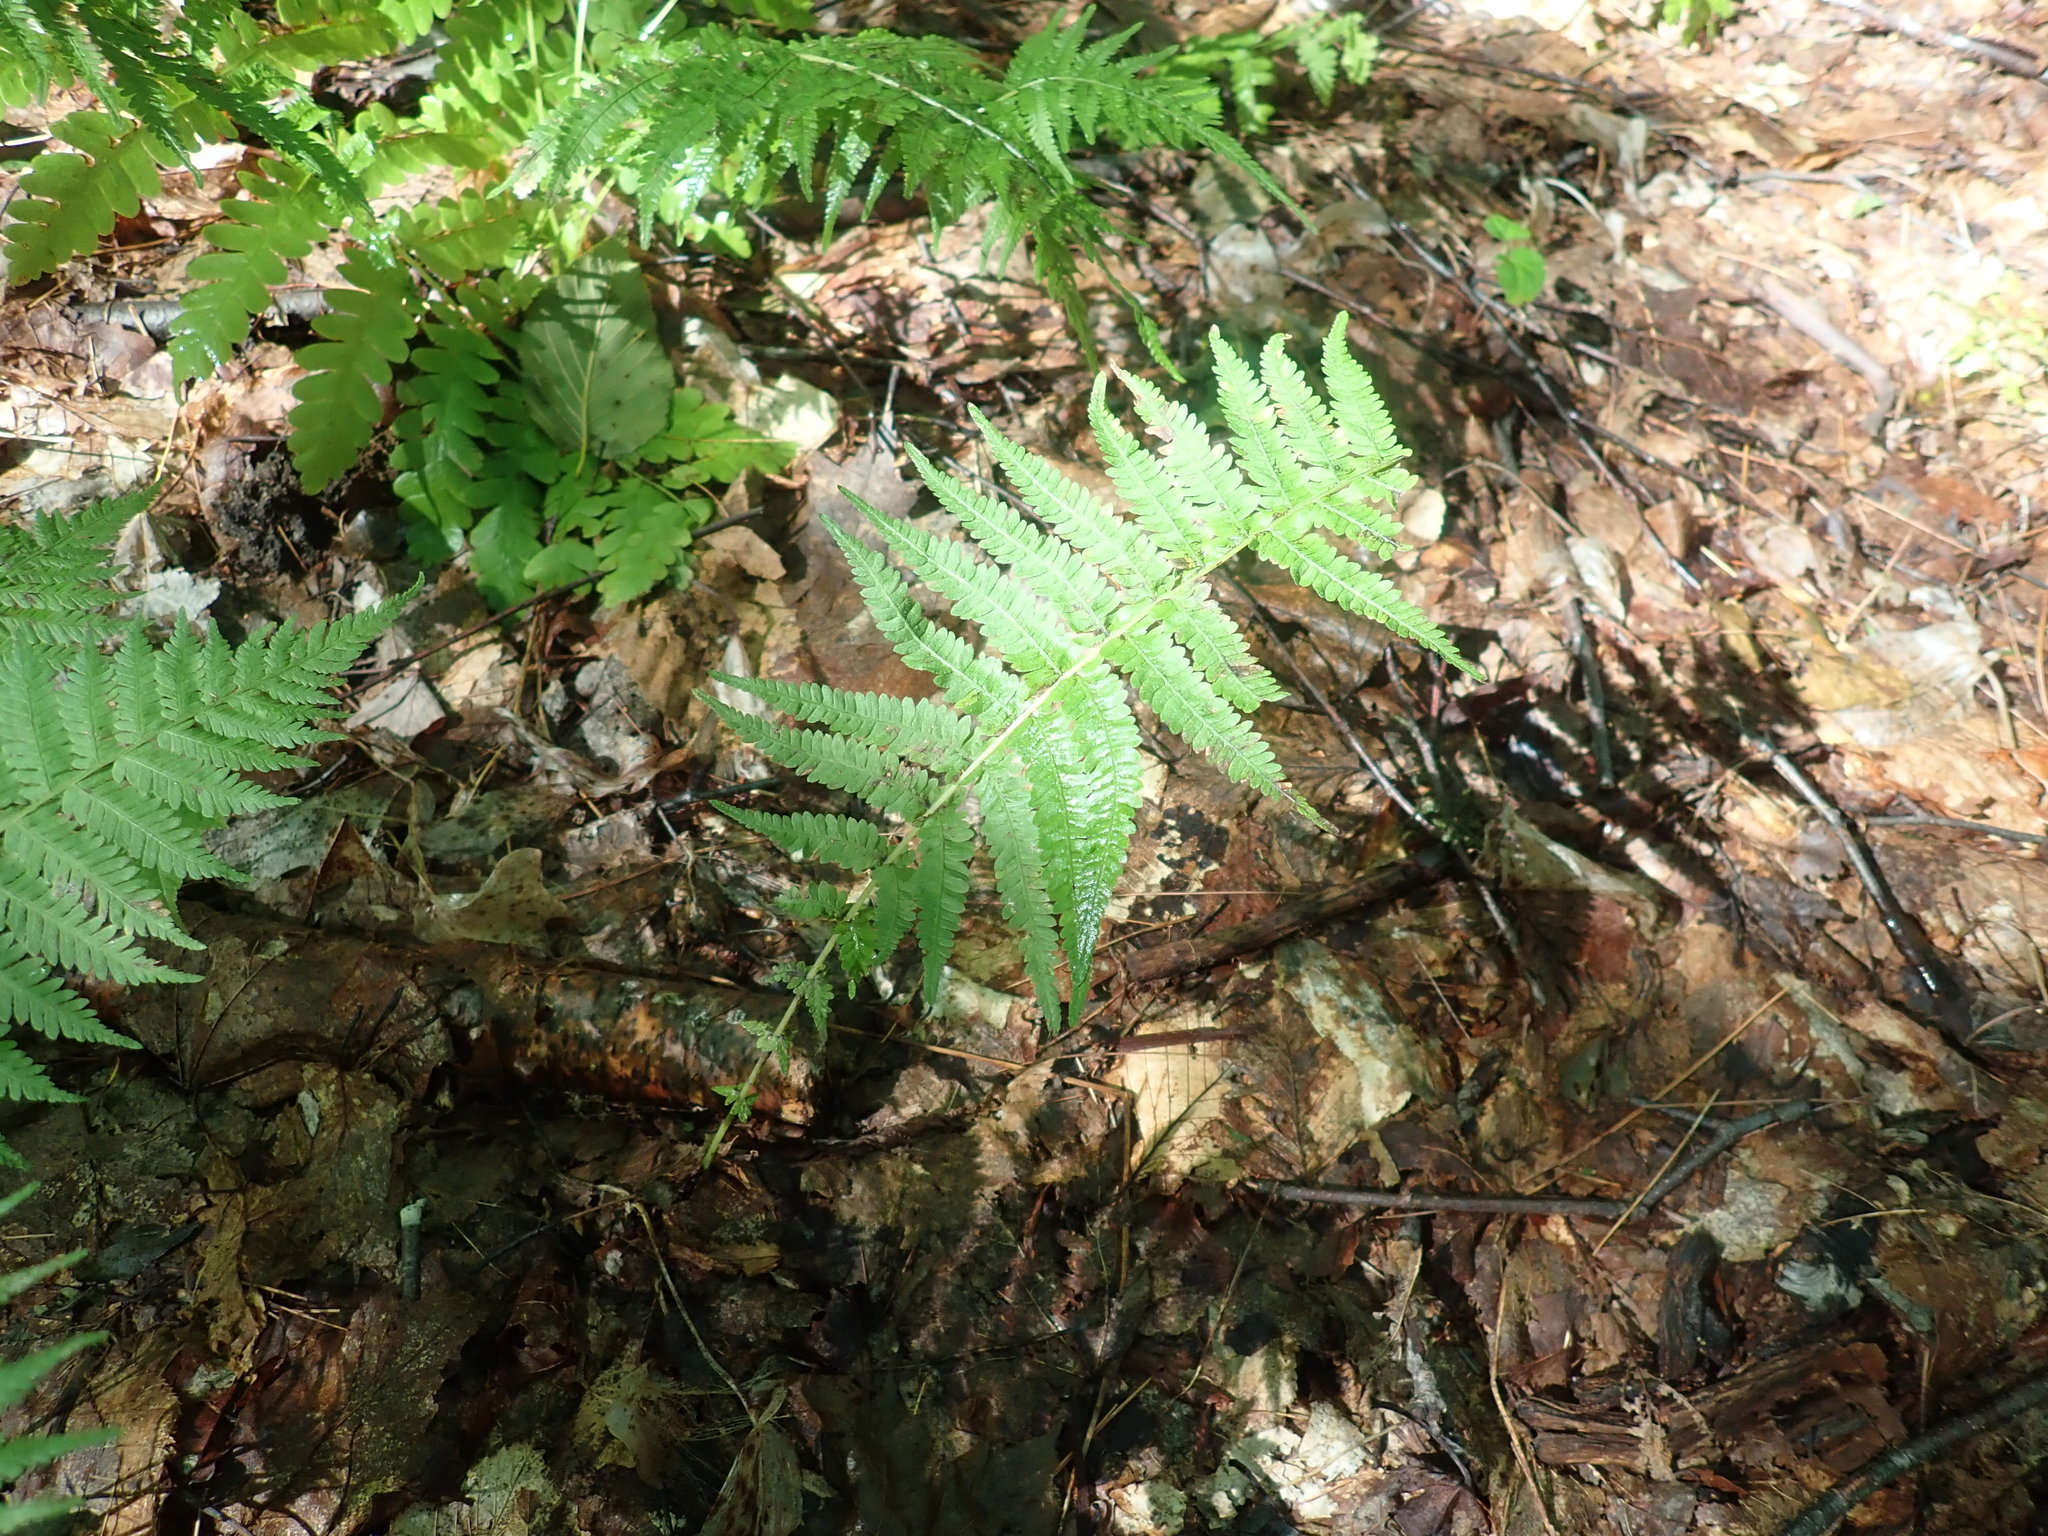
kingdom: Plantae
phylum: Tracheophyta
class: Polypodiopsida
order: Polypodiales
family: Thelypteridaceae
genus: Amauropelta
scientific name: Amauropelta noveboracensis
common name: New york fern
